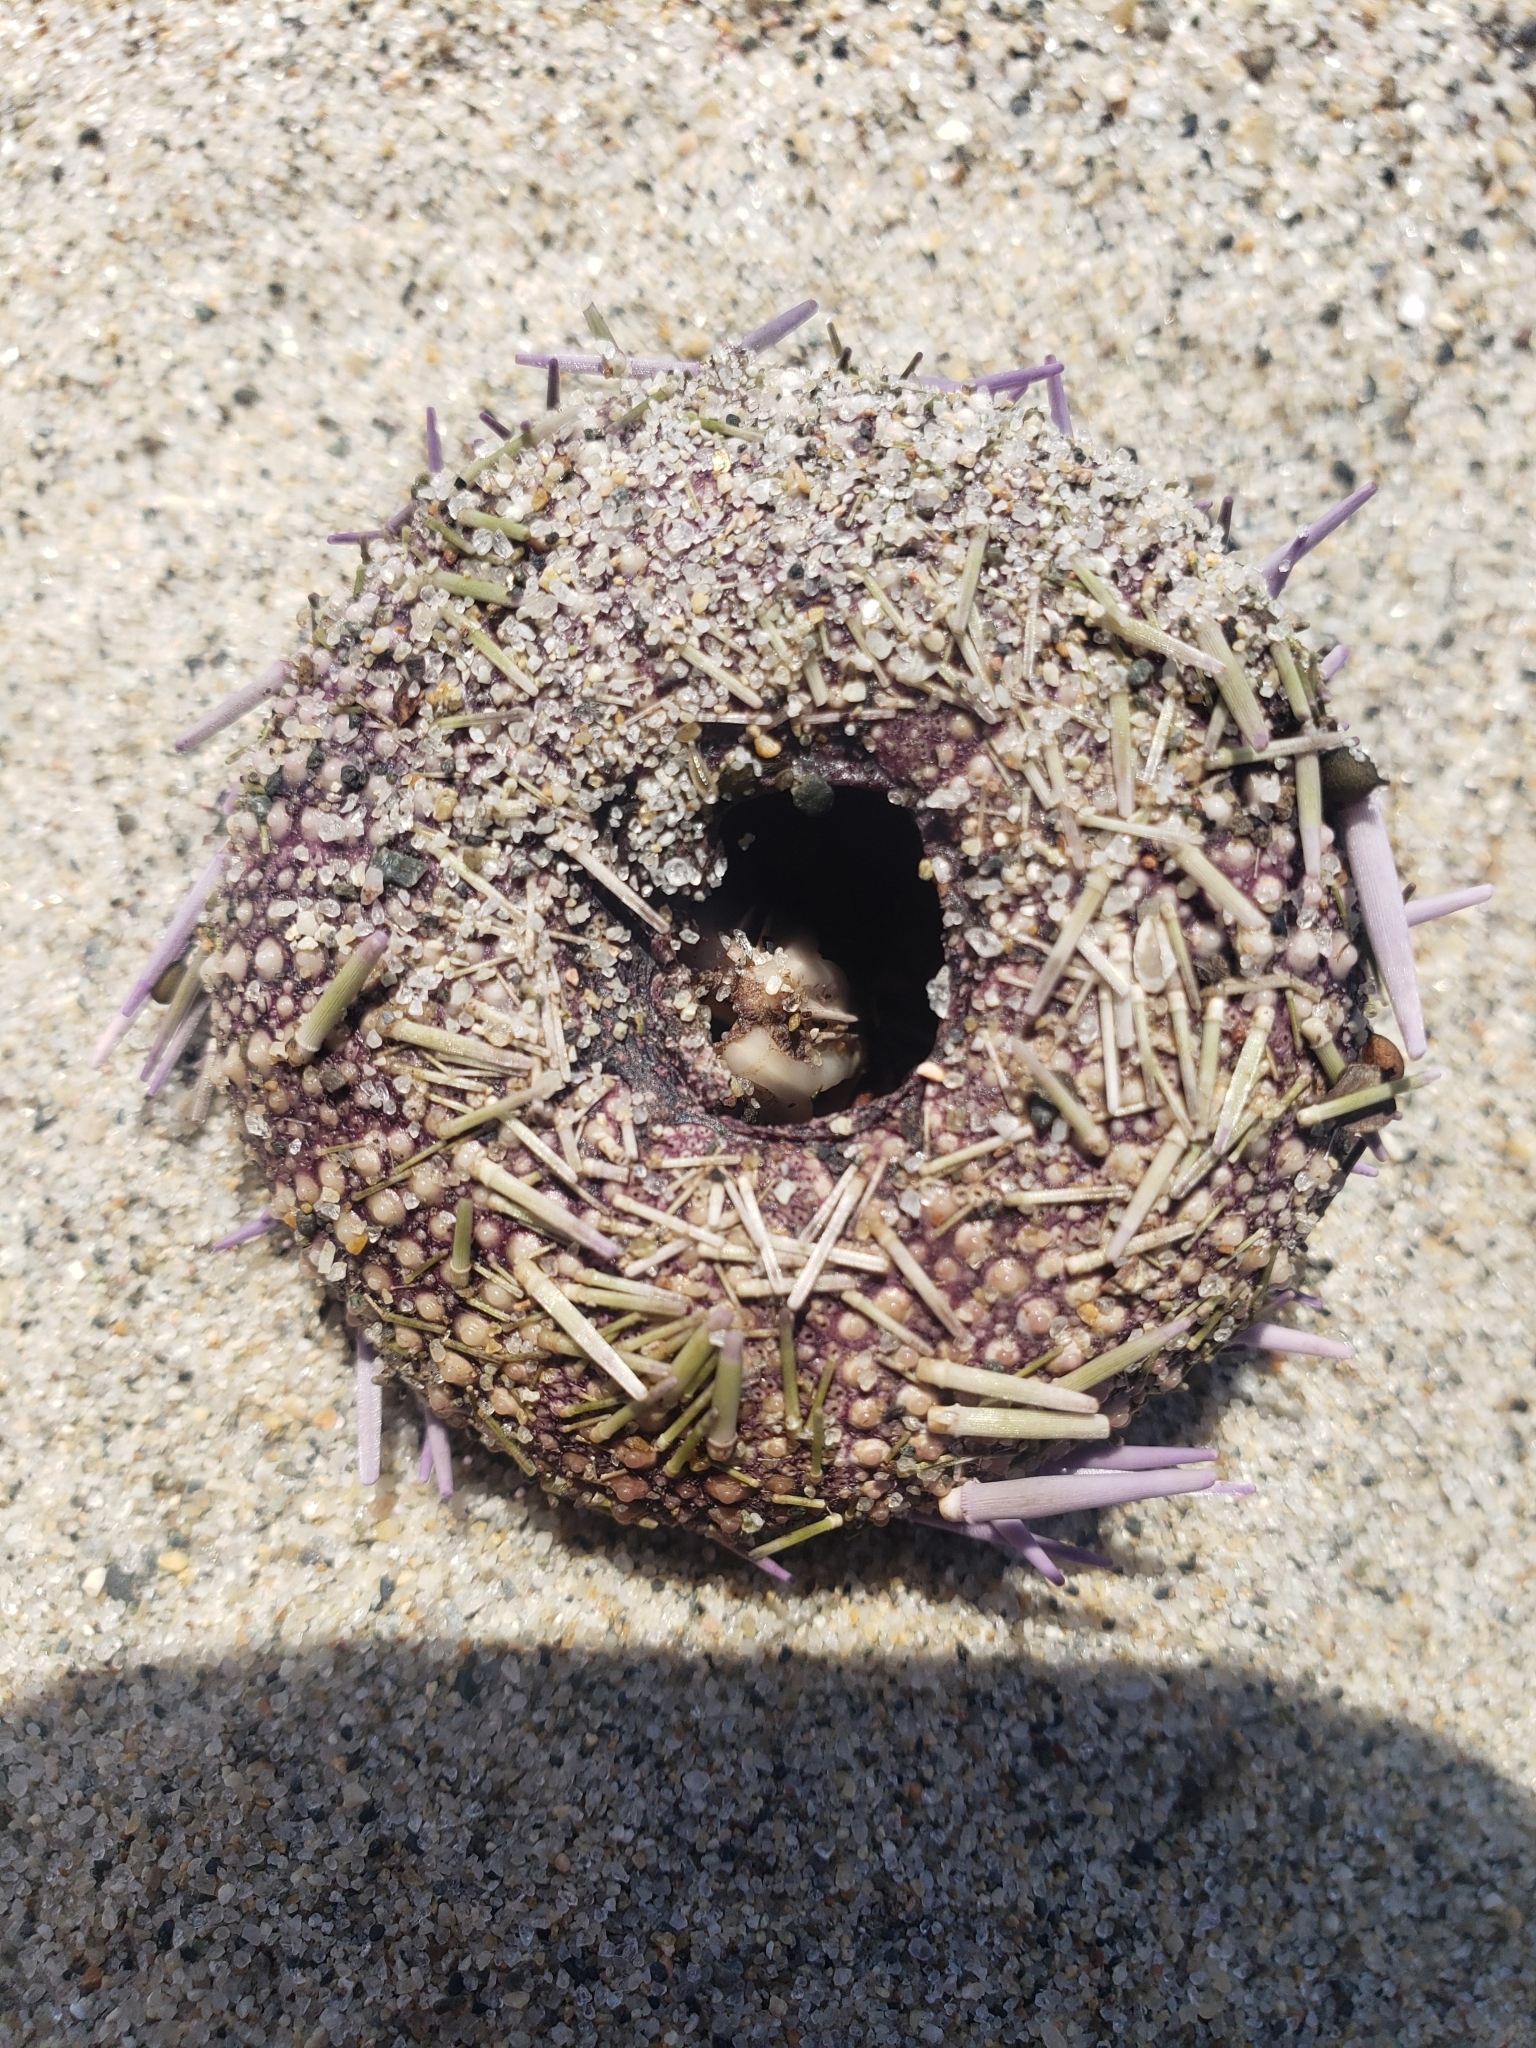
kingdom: Animalia
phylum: Echinodermata
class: Echinoidea
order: Camarodonta
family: Strongylocentrotidae
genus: Strongylocentrotus
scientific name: Strongylocentrotus purpuratus
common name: Purple sea urchin
